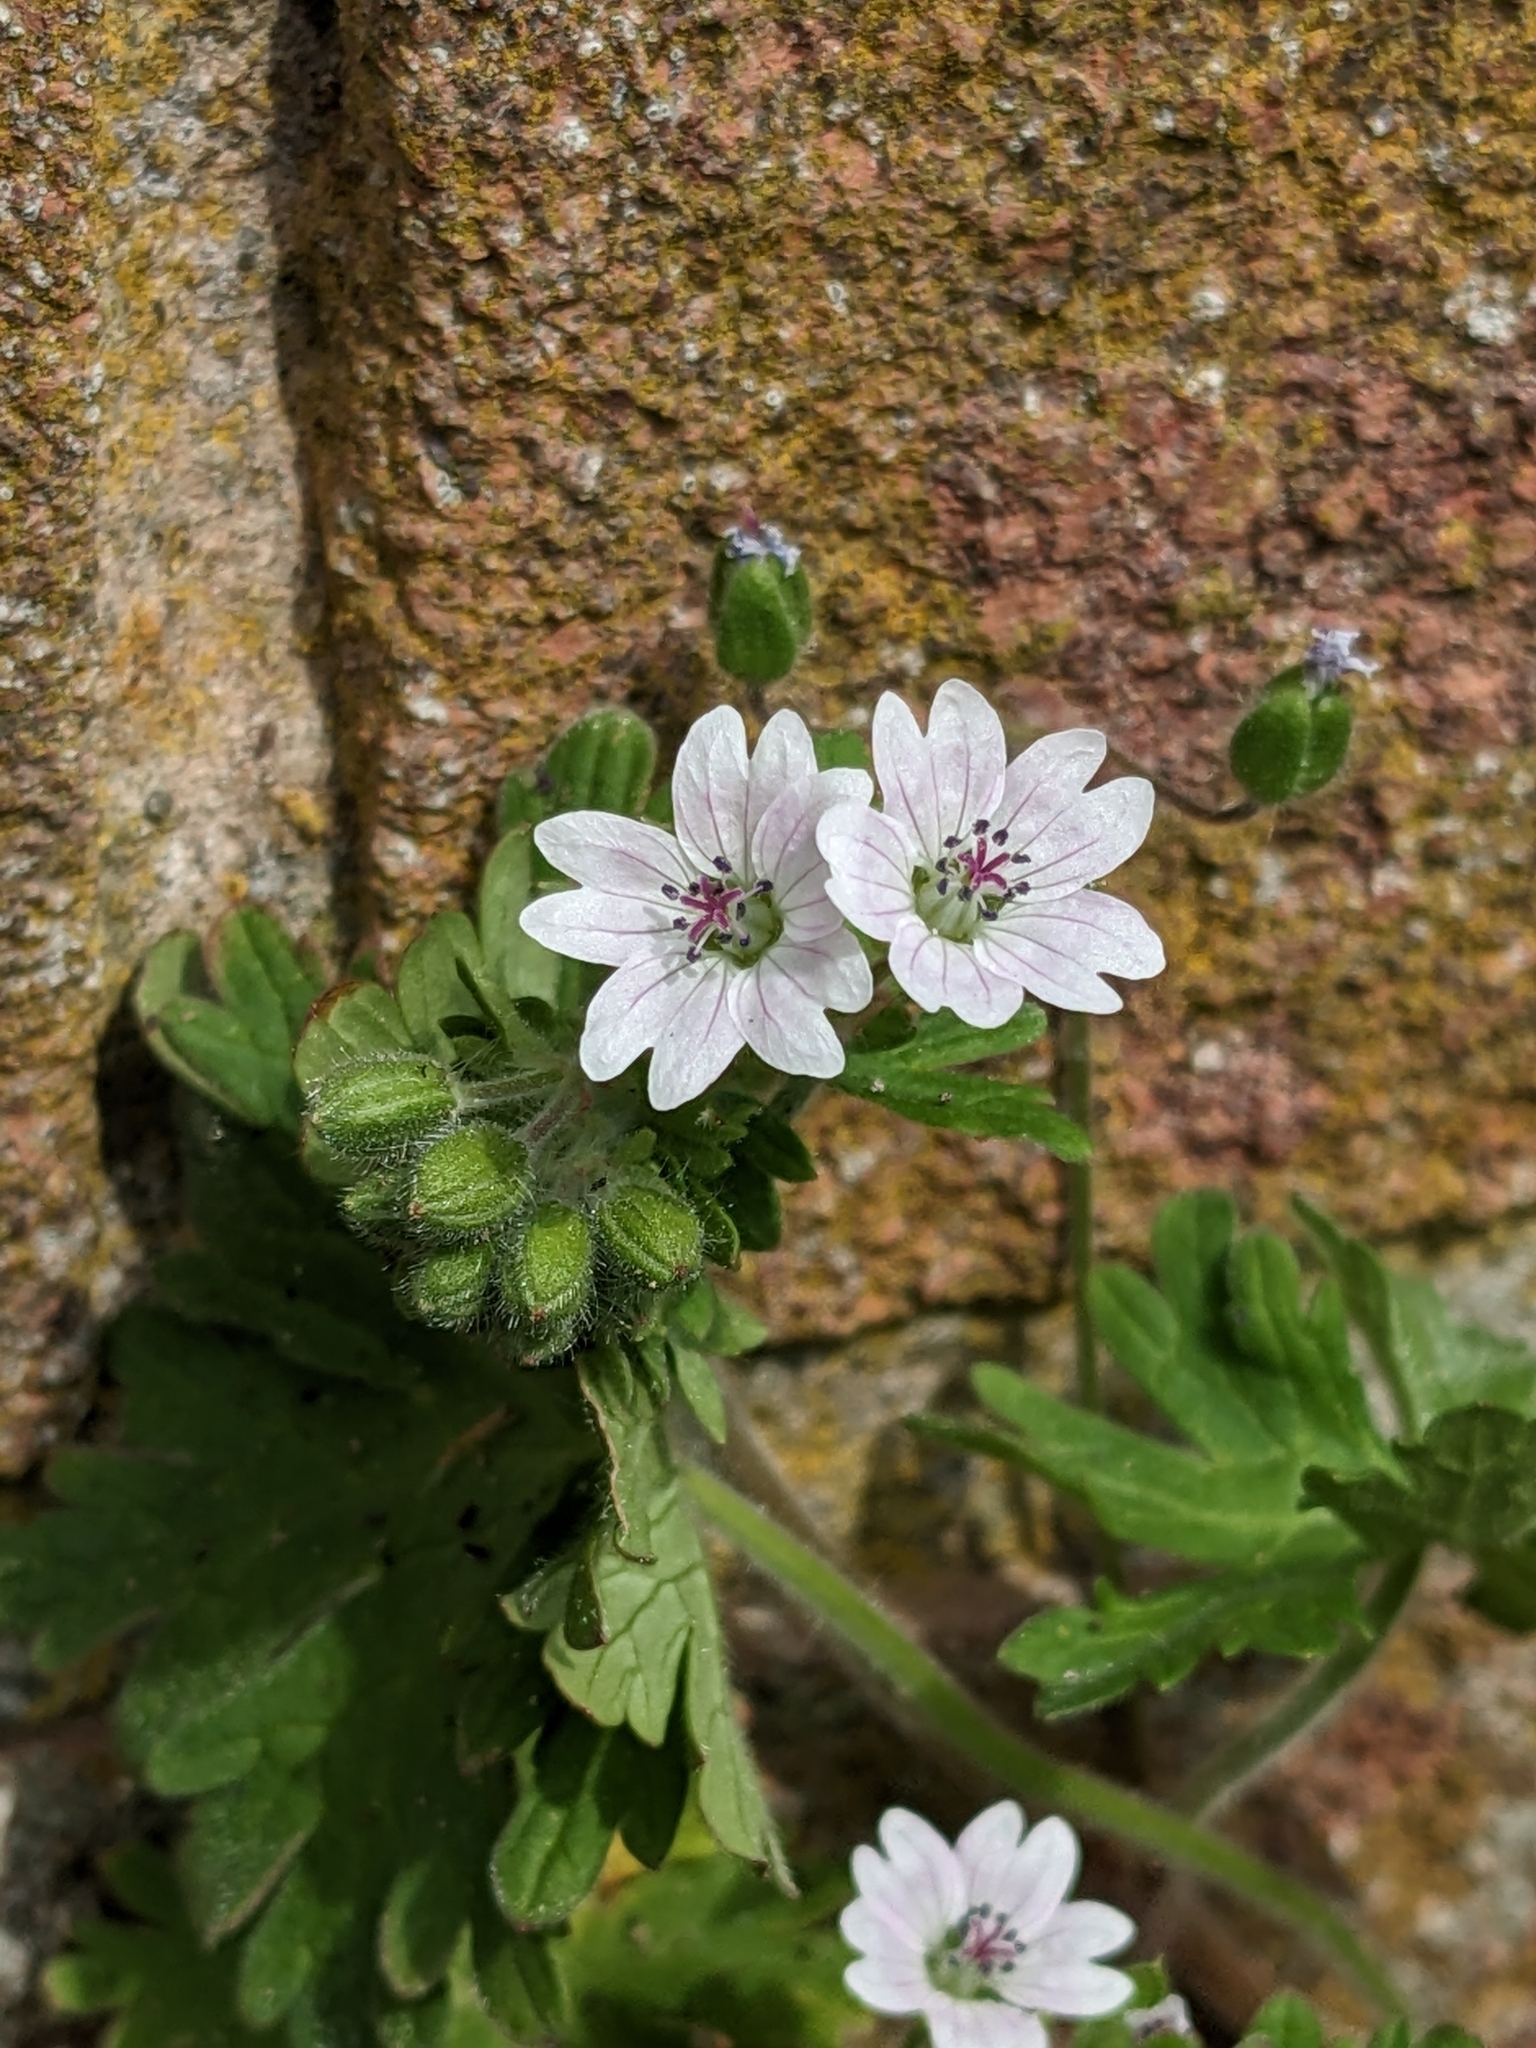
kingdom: Plantae
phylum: Tracheophyta
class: Magnoliopsida
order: Geraniales
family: Geraniaceae
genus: Geranium
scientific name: Geranium molle
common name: Dove's-foot crane's-bill
